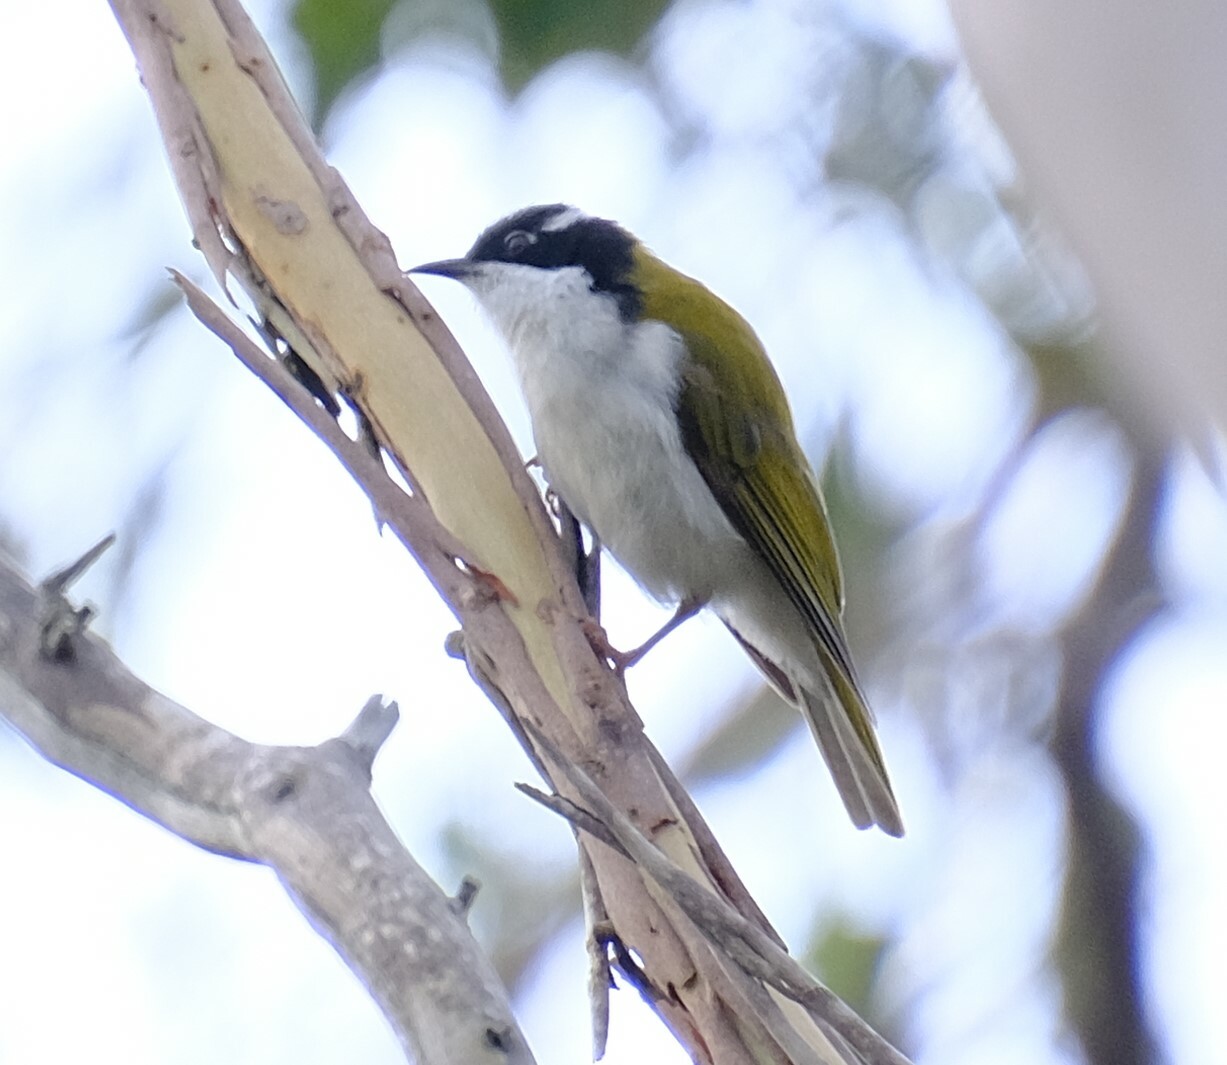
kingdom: Animalia
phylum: Chordata
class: Aves
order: Passeriformes
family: Meliphagidae
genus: Melithreptus
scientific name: Melithreptus albogularis
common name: White-throated honeyeater
